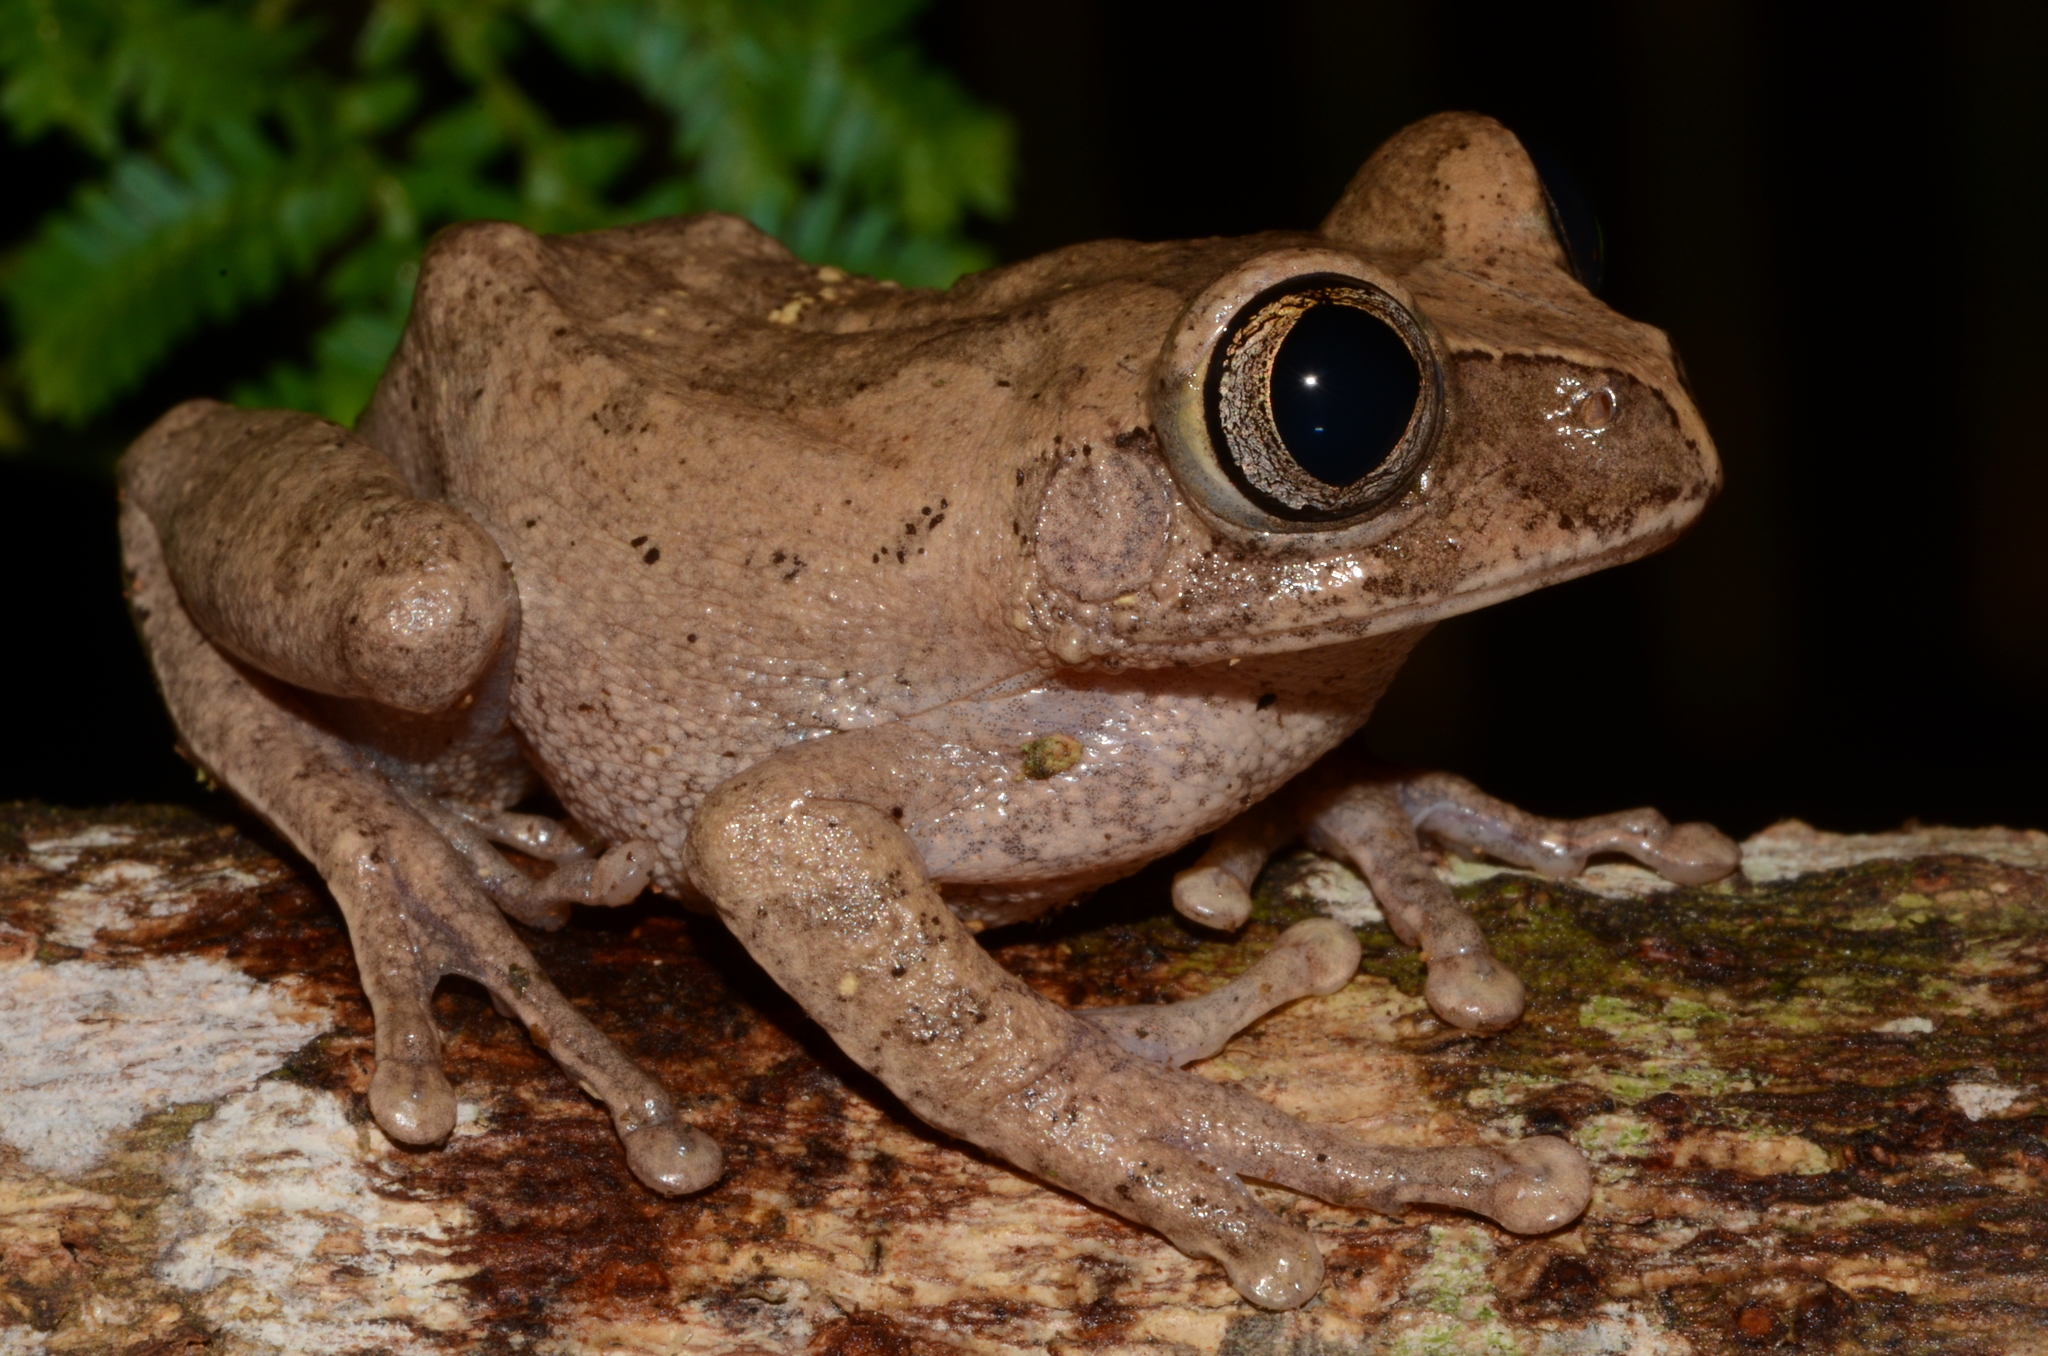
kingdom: Animalia
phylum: Chordata
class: Amphibia
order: Anura
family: Arthroleptidae
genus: Leptopelis
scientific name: Leptopelis aubryi
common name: Gaboon forest treefrog
